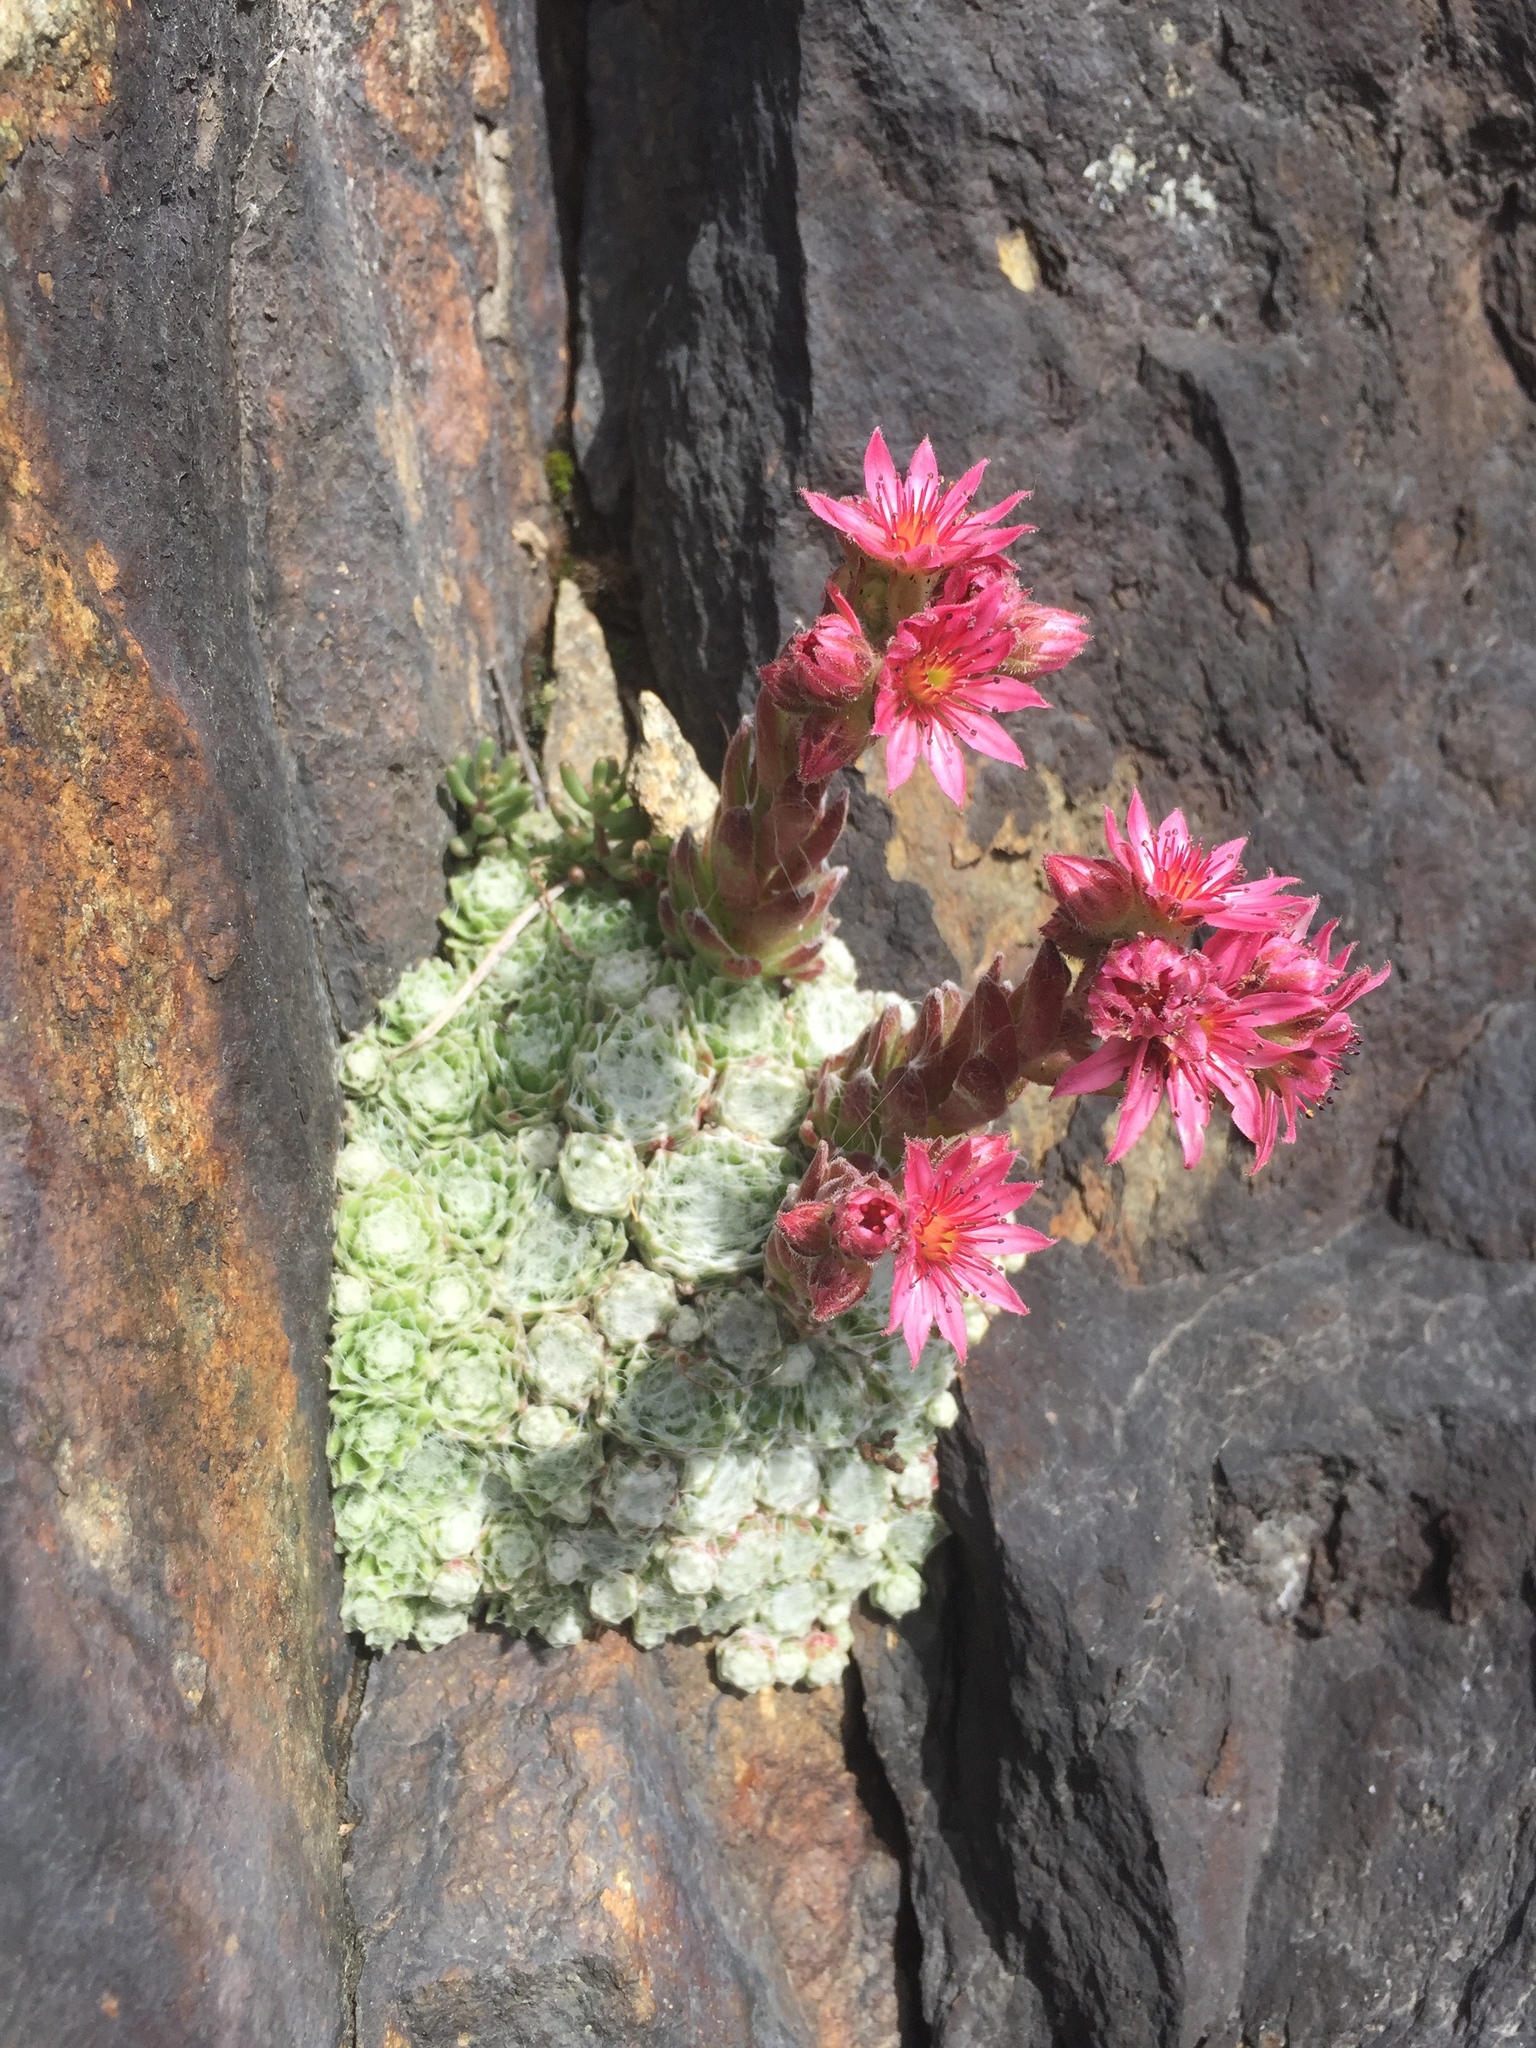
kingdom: Plantae
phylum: Tracheophyta
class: Magnoliopsida
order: Saxifragales
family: Crassulaceae
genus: Sempervivum
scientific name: Sempervivum arachnoideum
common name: Cobweb house-leek
